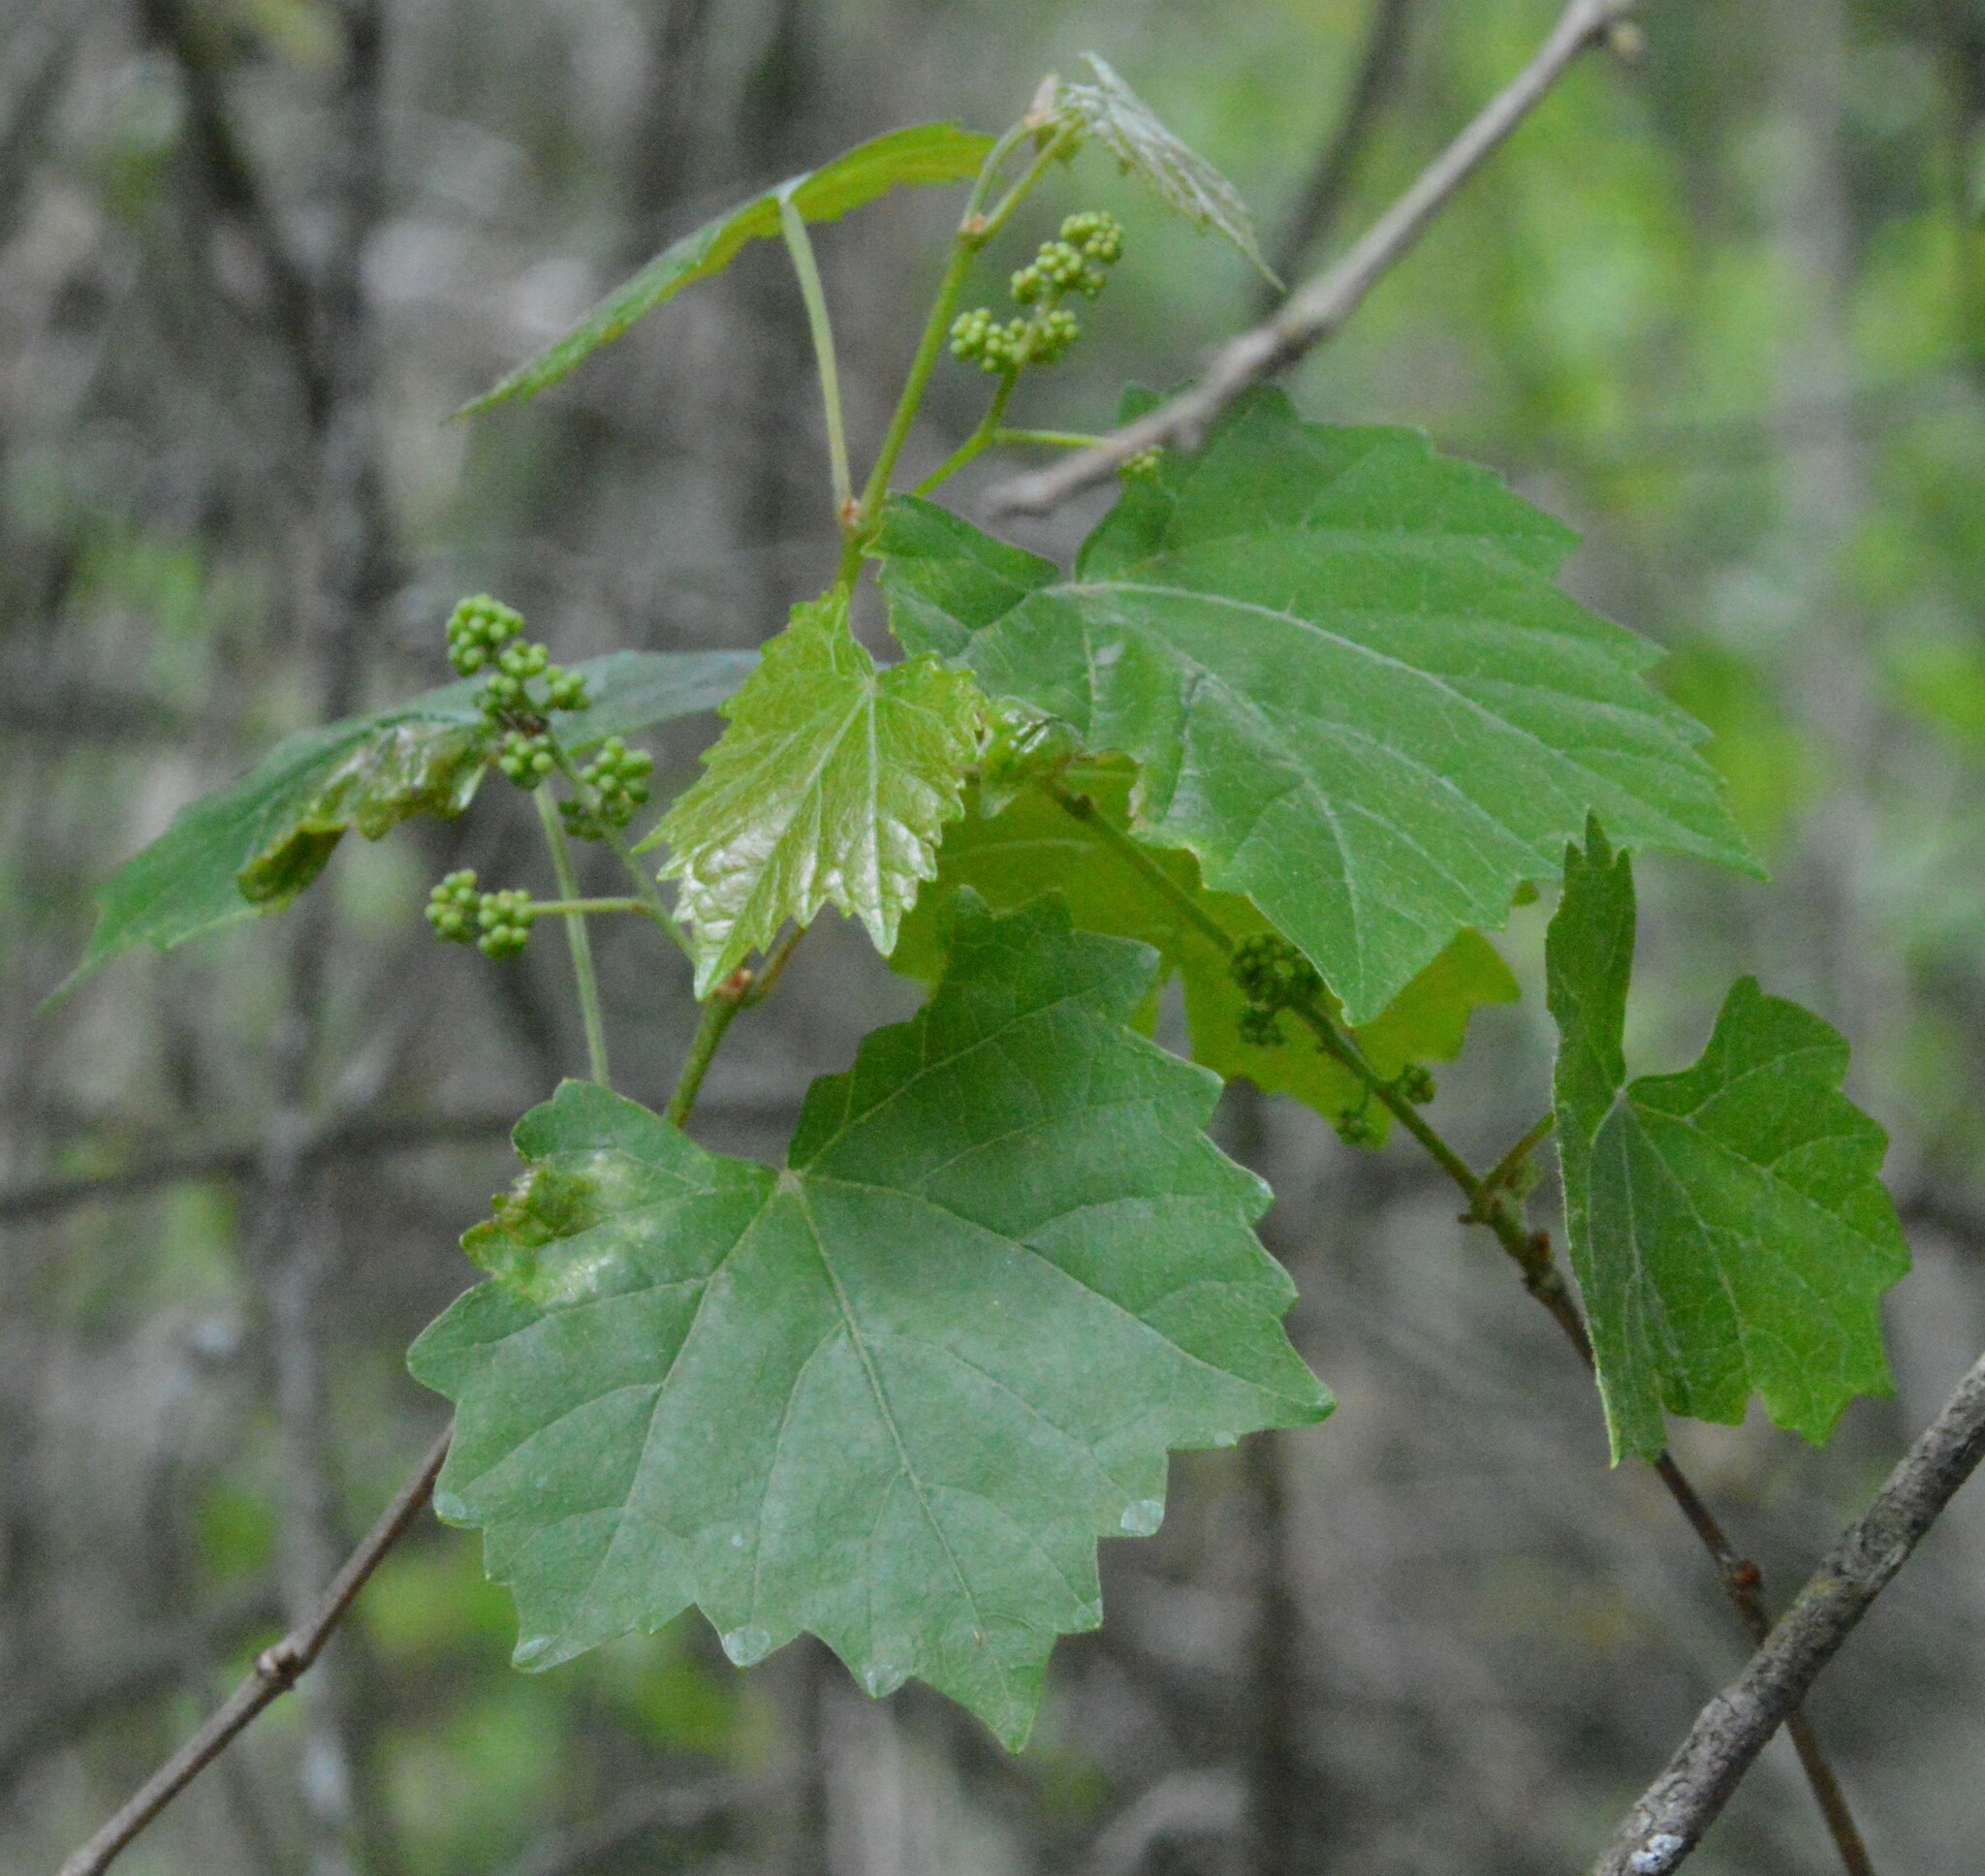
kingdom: Plantae
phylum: Tracheophyta
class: Magnoliopsida
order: Vitales
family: Vitaceae
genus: Vitis
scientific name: Vitis rotundifolia
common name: Muscadine grape
